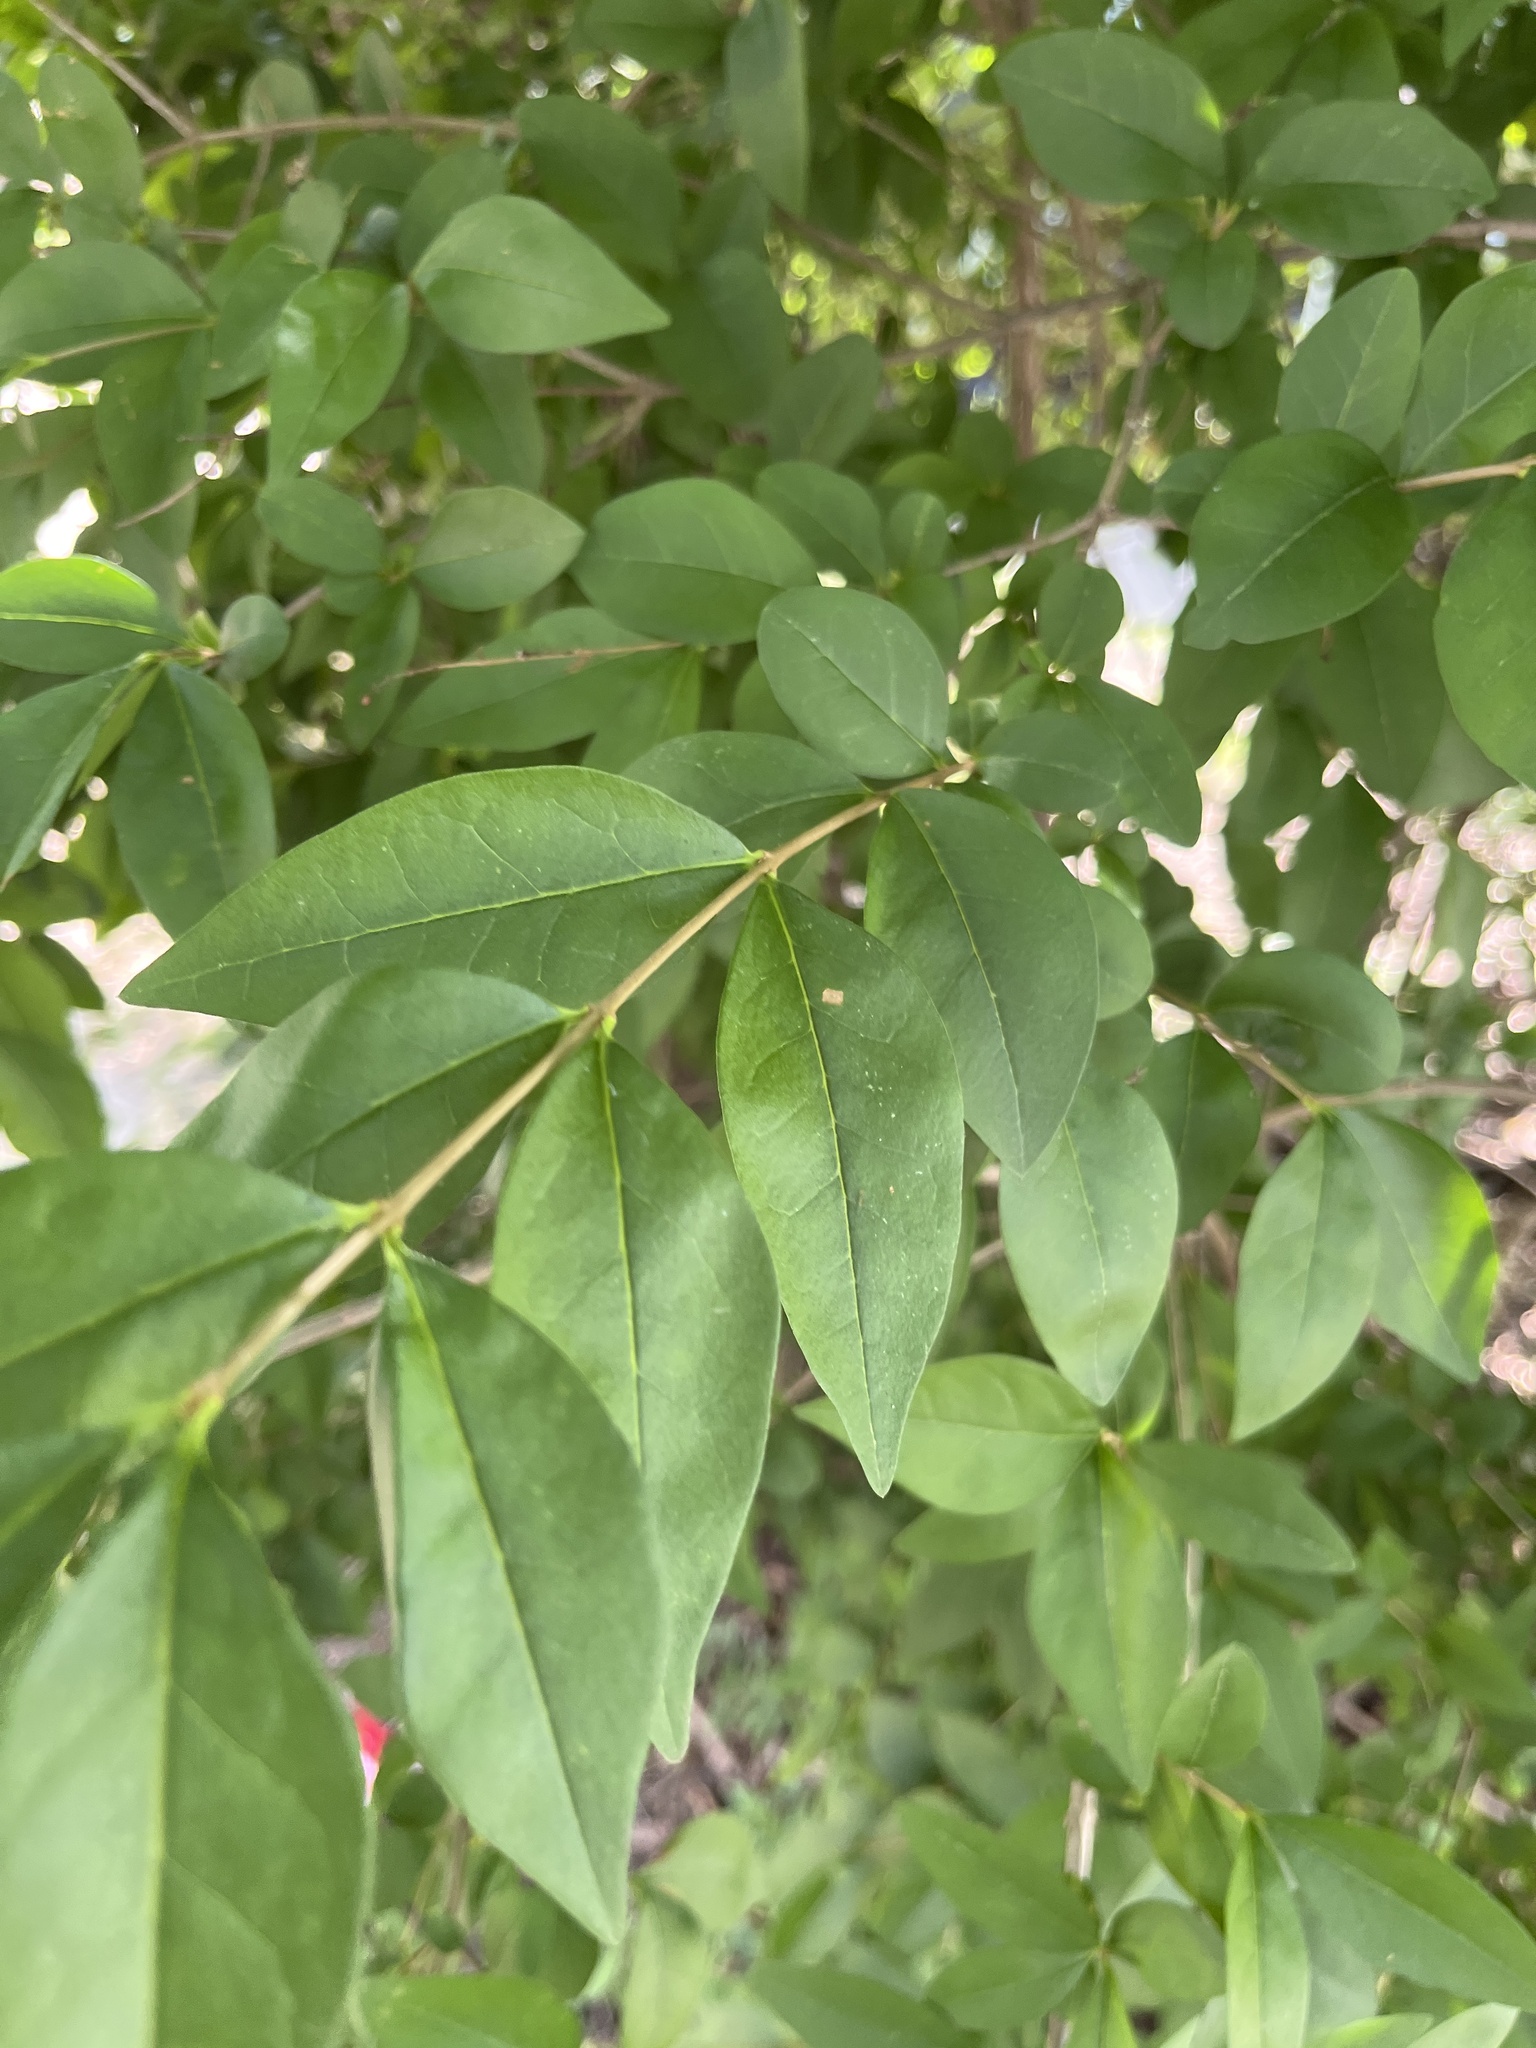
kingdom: Plantae
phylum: Tracheophyta
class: Magnoliopsida
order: Lamiales
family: Oleaceae
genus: Ligustrum
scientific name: Ligustrum obtusifolium
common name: Border privet
